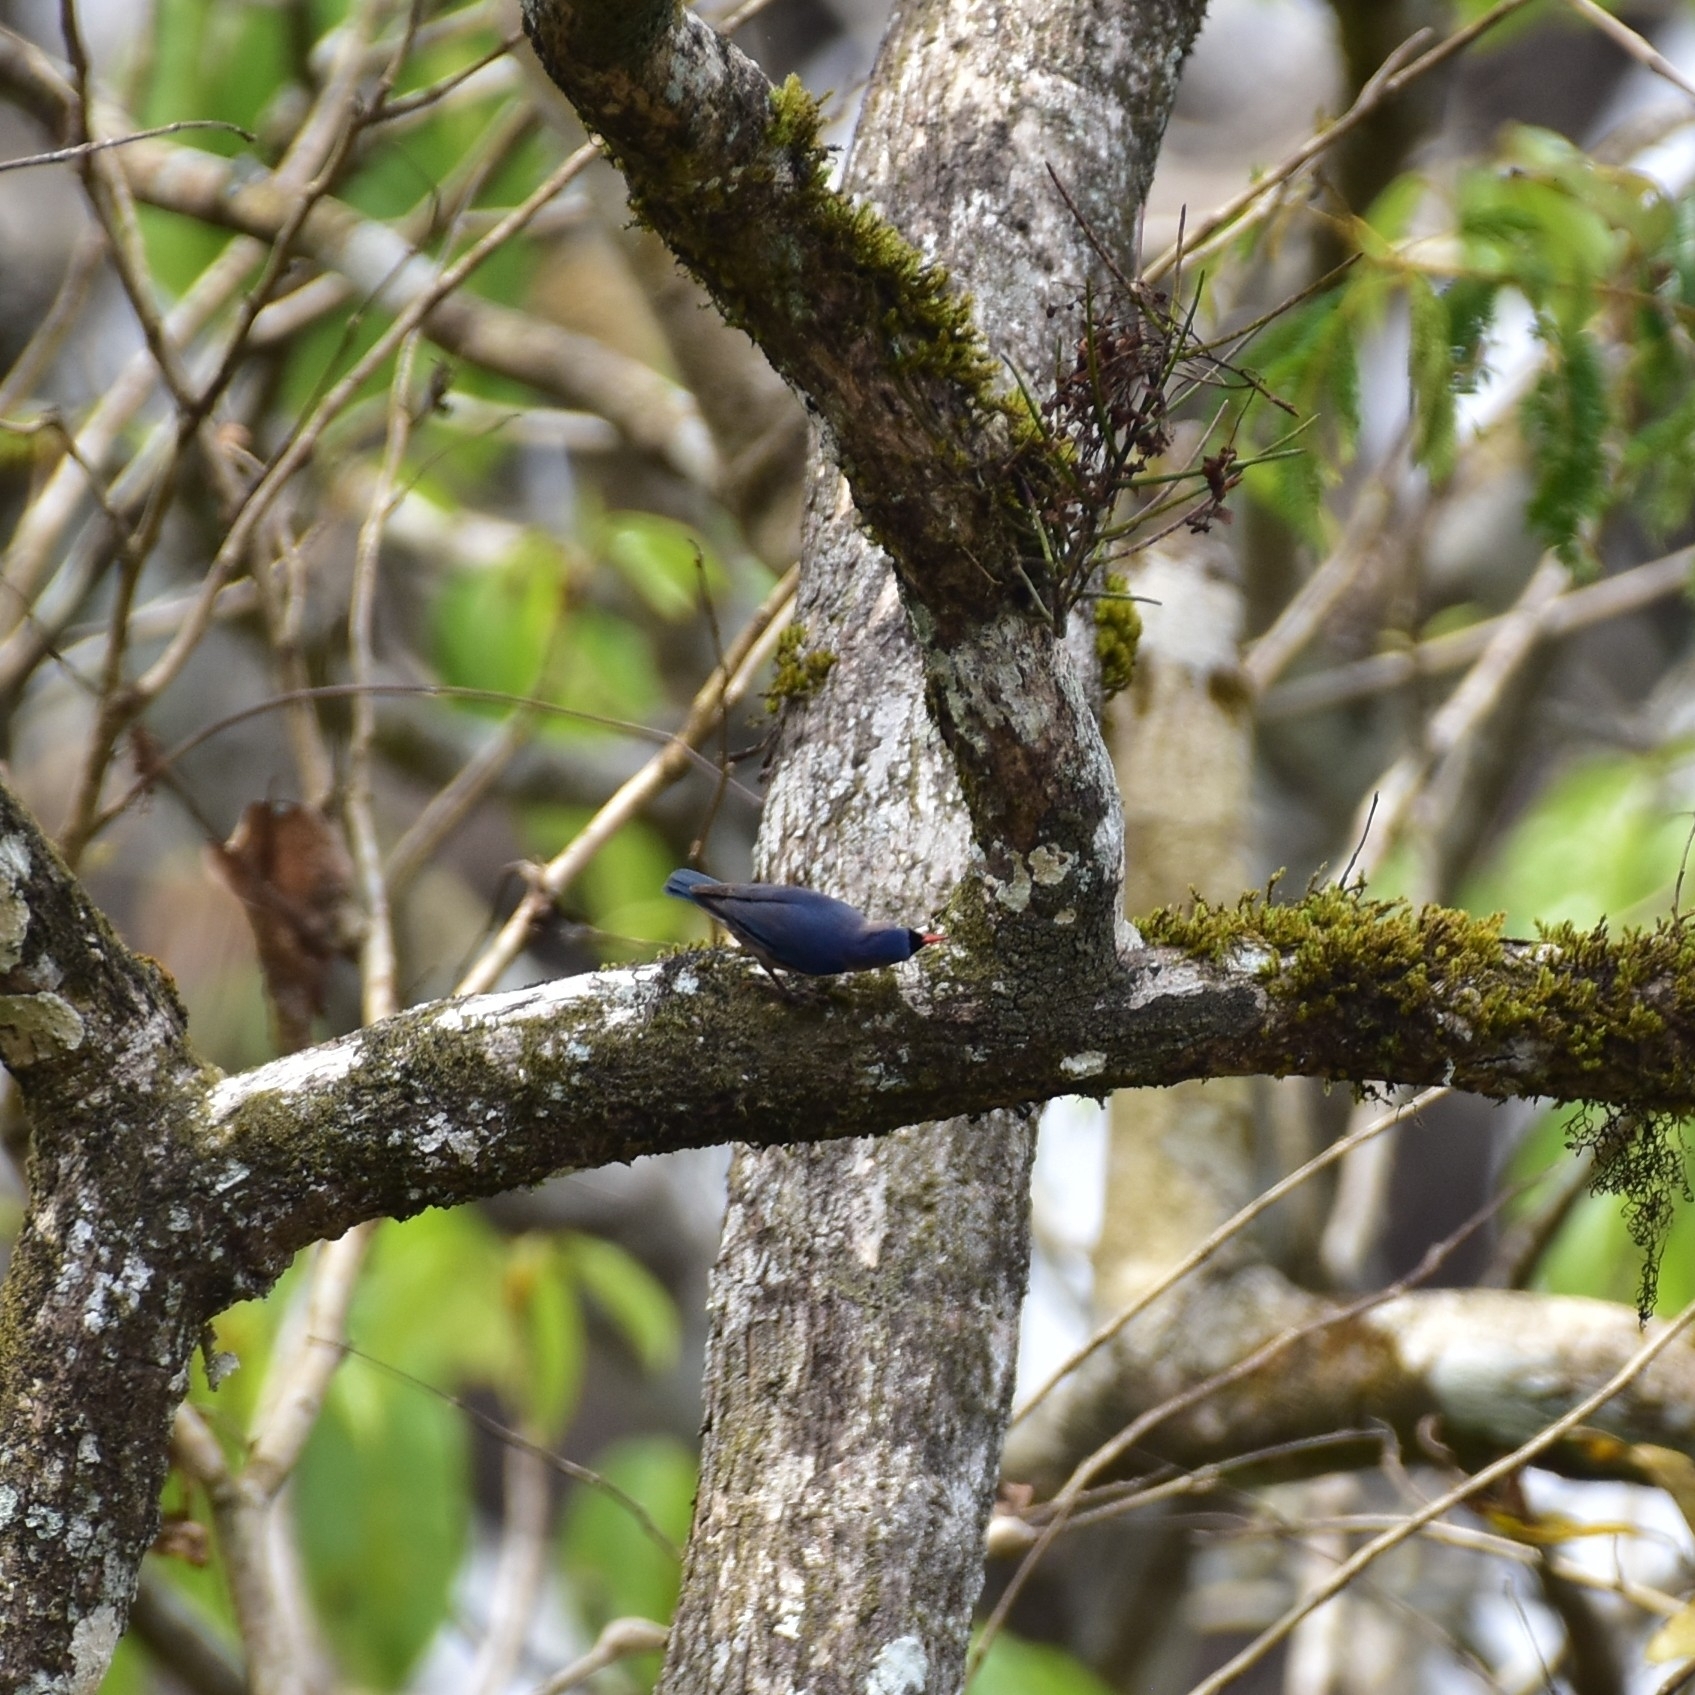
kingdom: Animalia
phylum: Chordata
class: Aves
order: Passeriformes
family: Sittidae
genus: Sitta
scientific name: Sitta frontalis
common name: Velvet-fronted nuthatch
